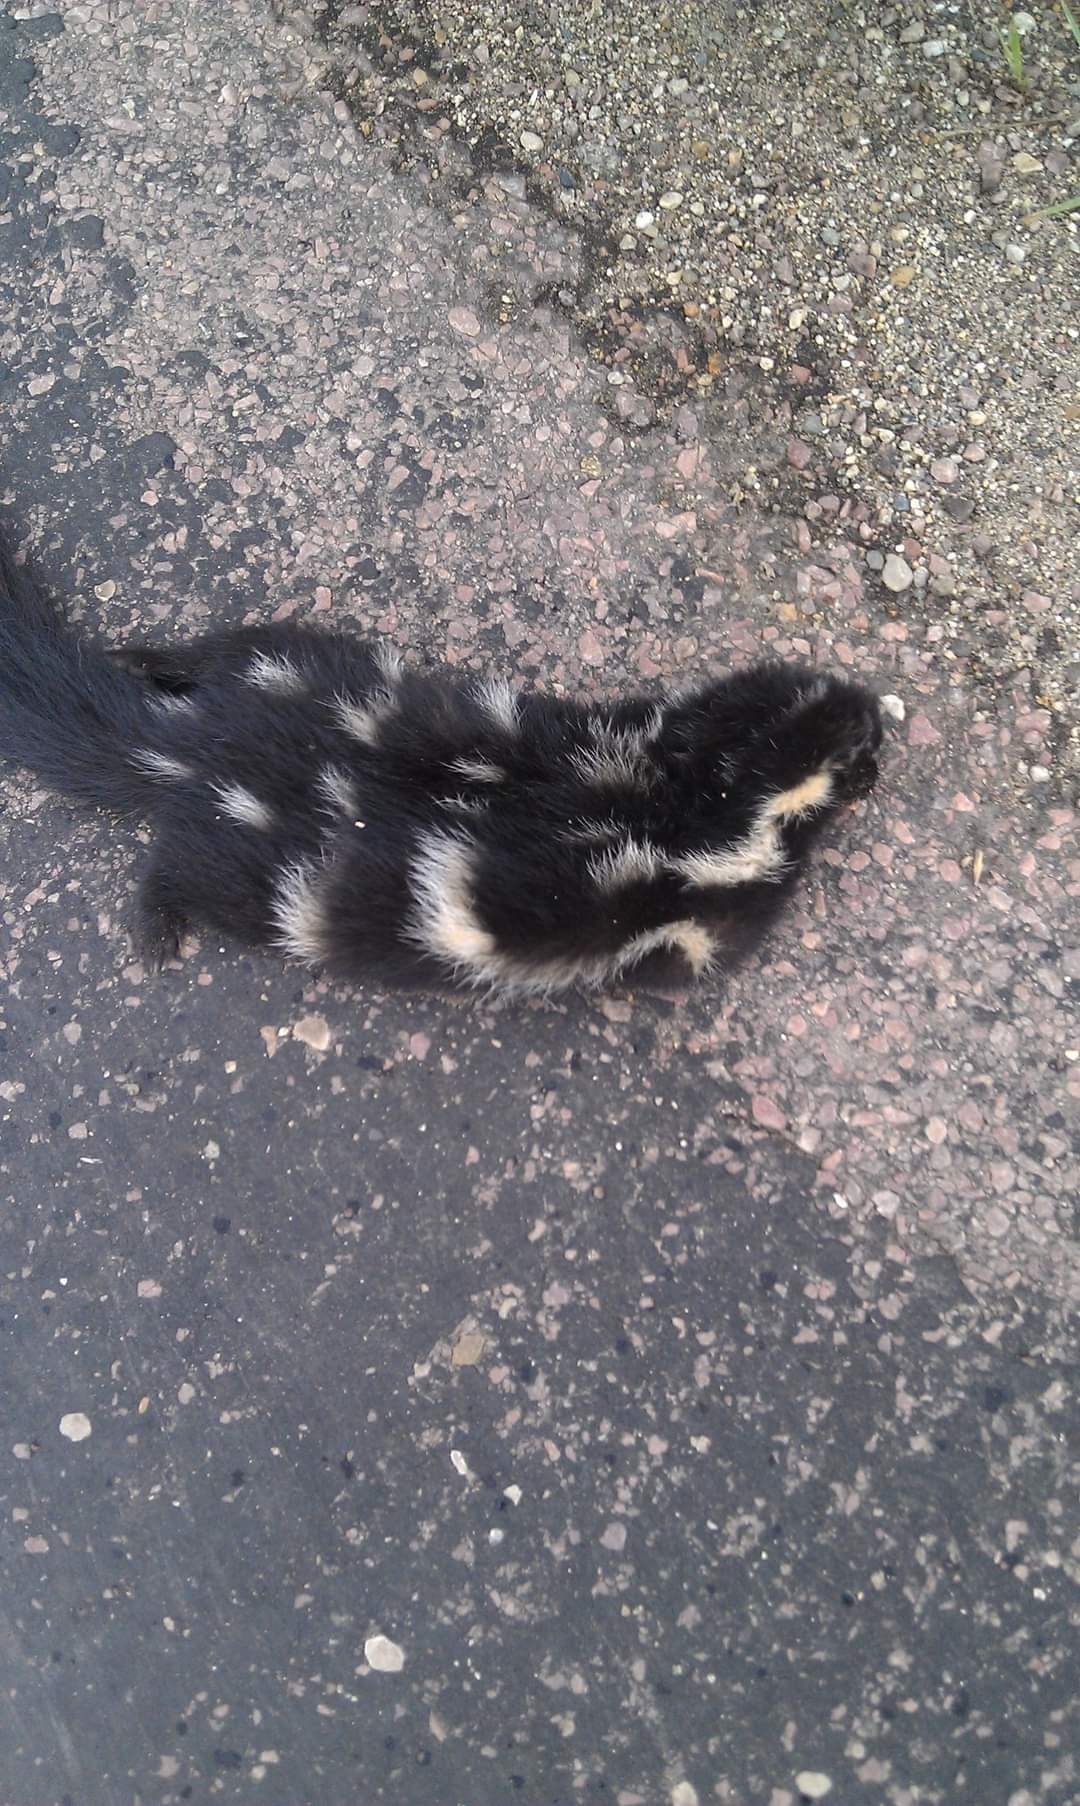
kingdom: Animalia
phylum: Chordata
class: Mammalia
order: Carnivora
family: Mephitidae
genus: Spilogale
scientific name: Spilogale putorius
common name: Eastern spotted skunk
